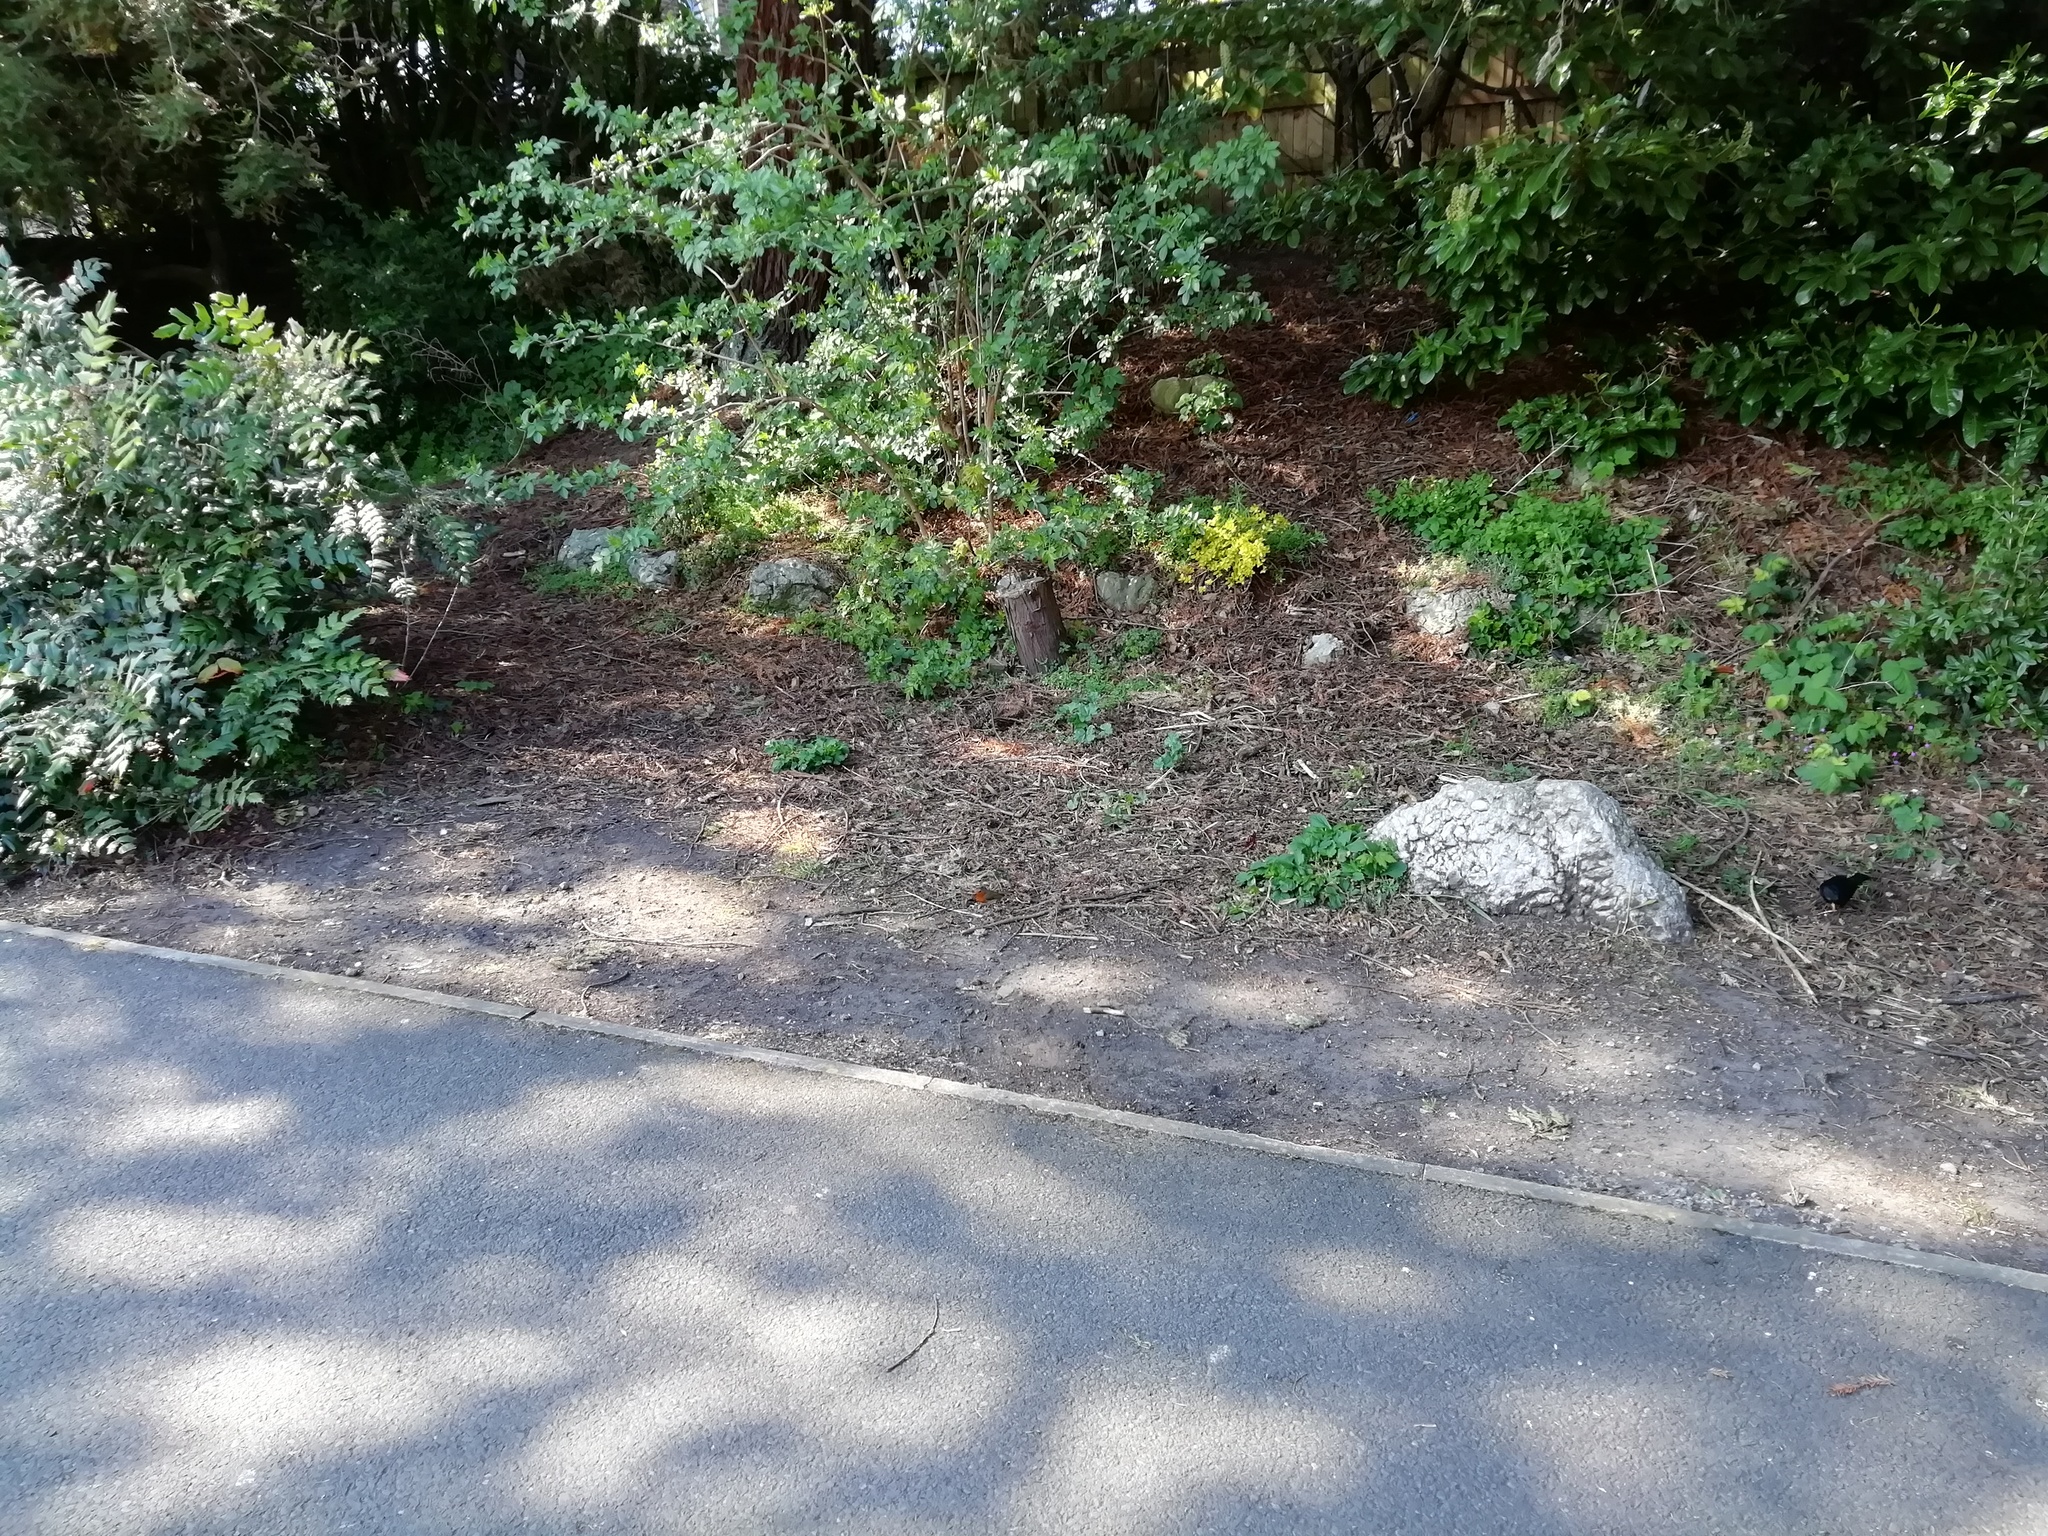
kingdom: Animalia
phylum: Chordata
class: Aves
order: Passeriformes
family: Muscicapidae
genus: Erithacus
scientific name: Erithacus rubecula
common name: European robin
